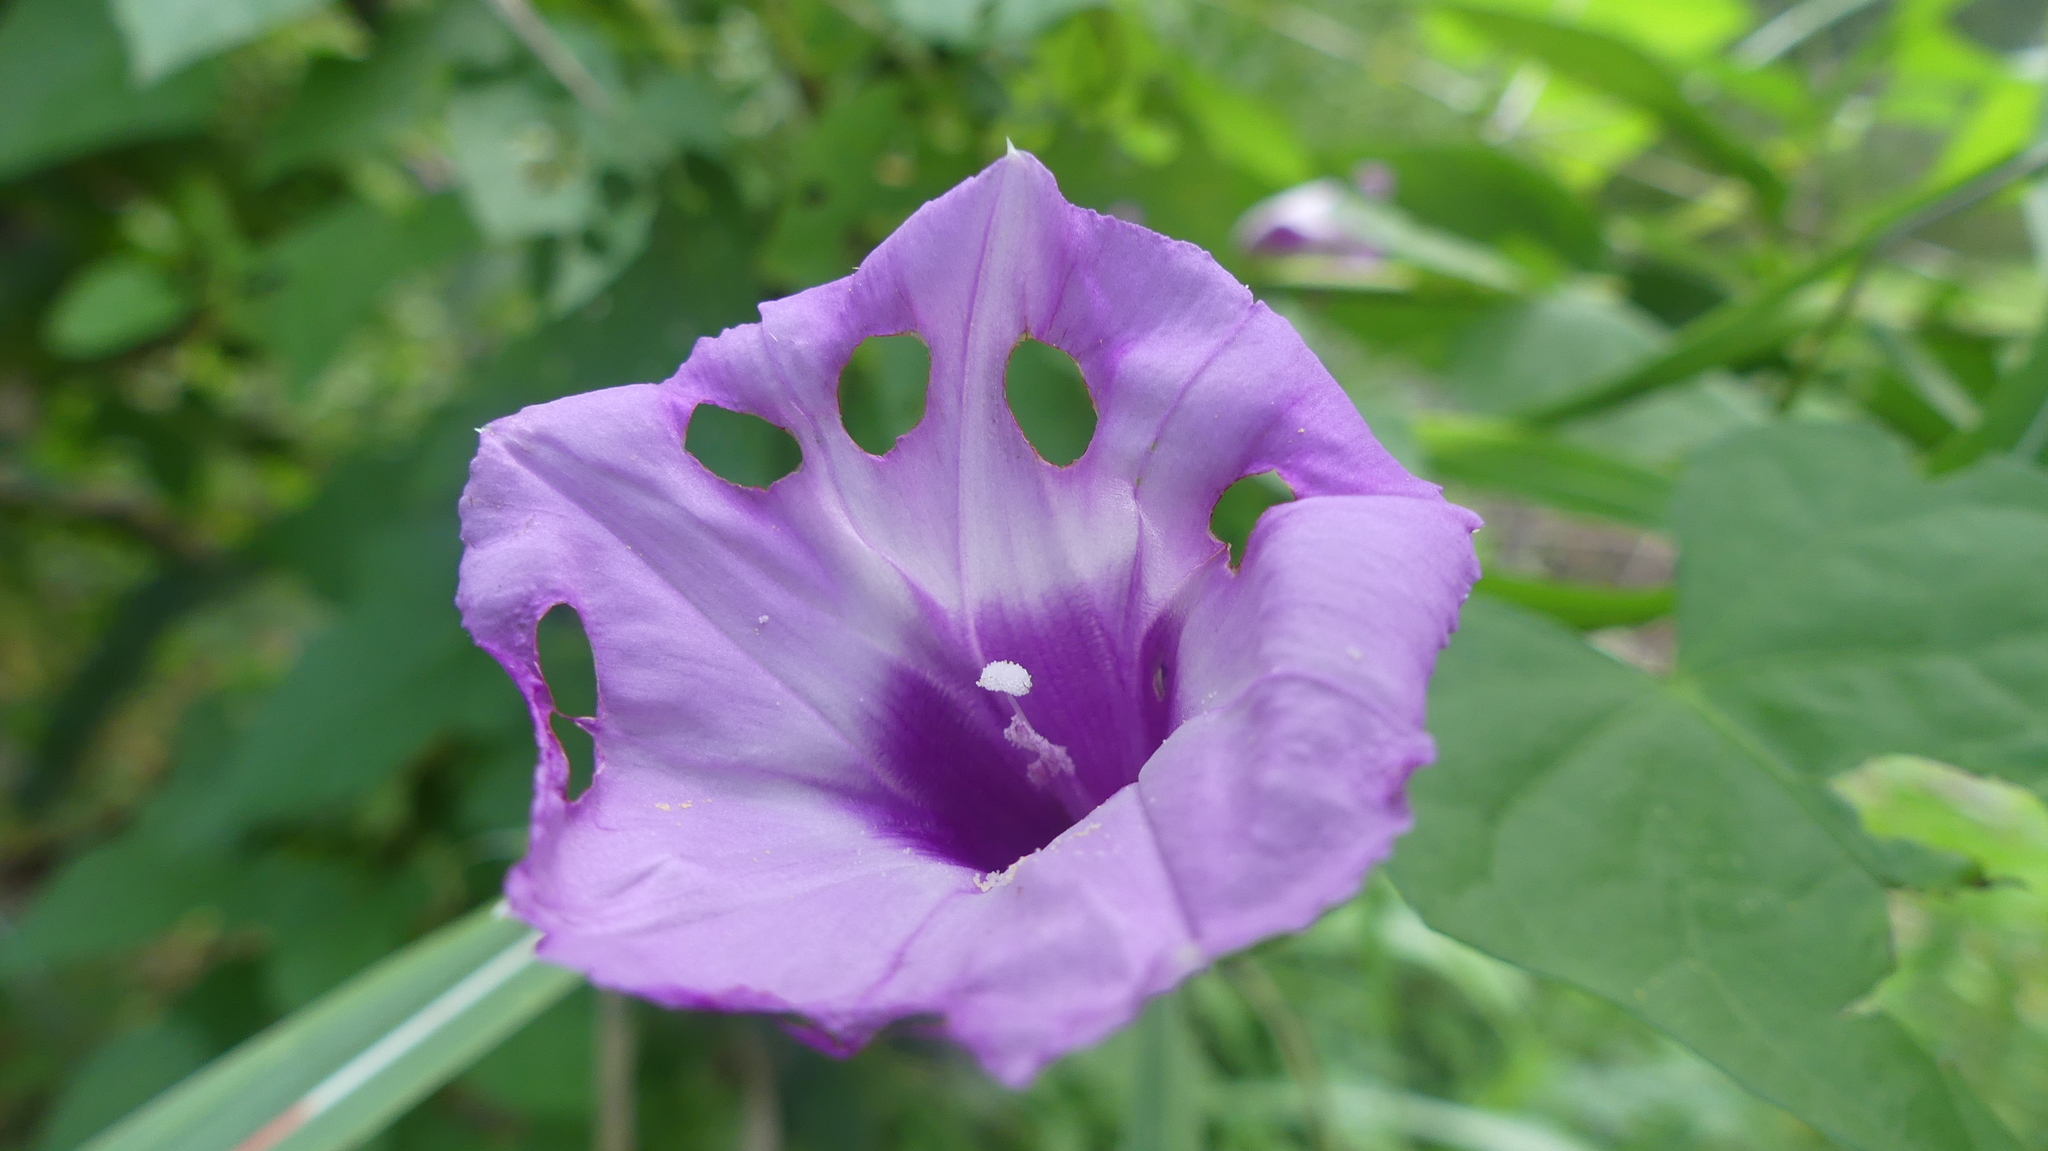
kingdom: Plantae
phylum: Tracheophyta
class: Magnoliopsida
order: Solanales
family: Convolvulaceae
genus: Ipomoea
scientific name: Ipomoea cordatotriloba
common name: Cotton morning glory
